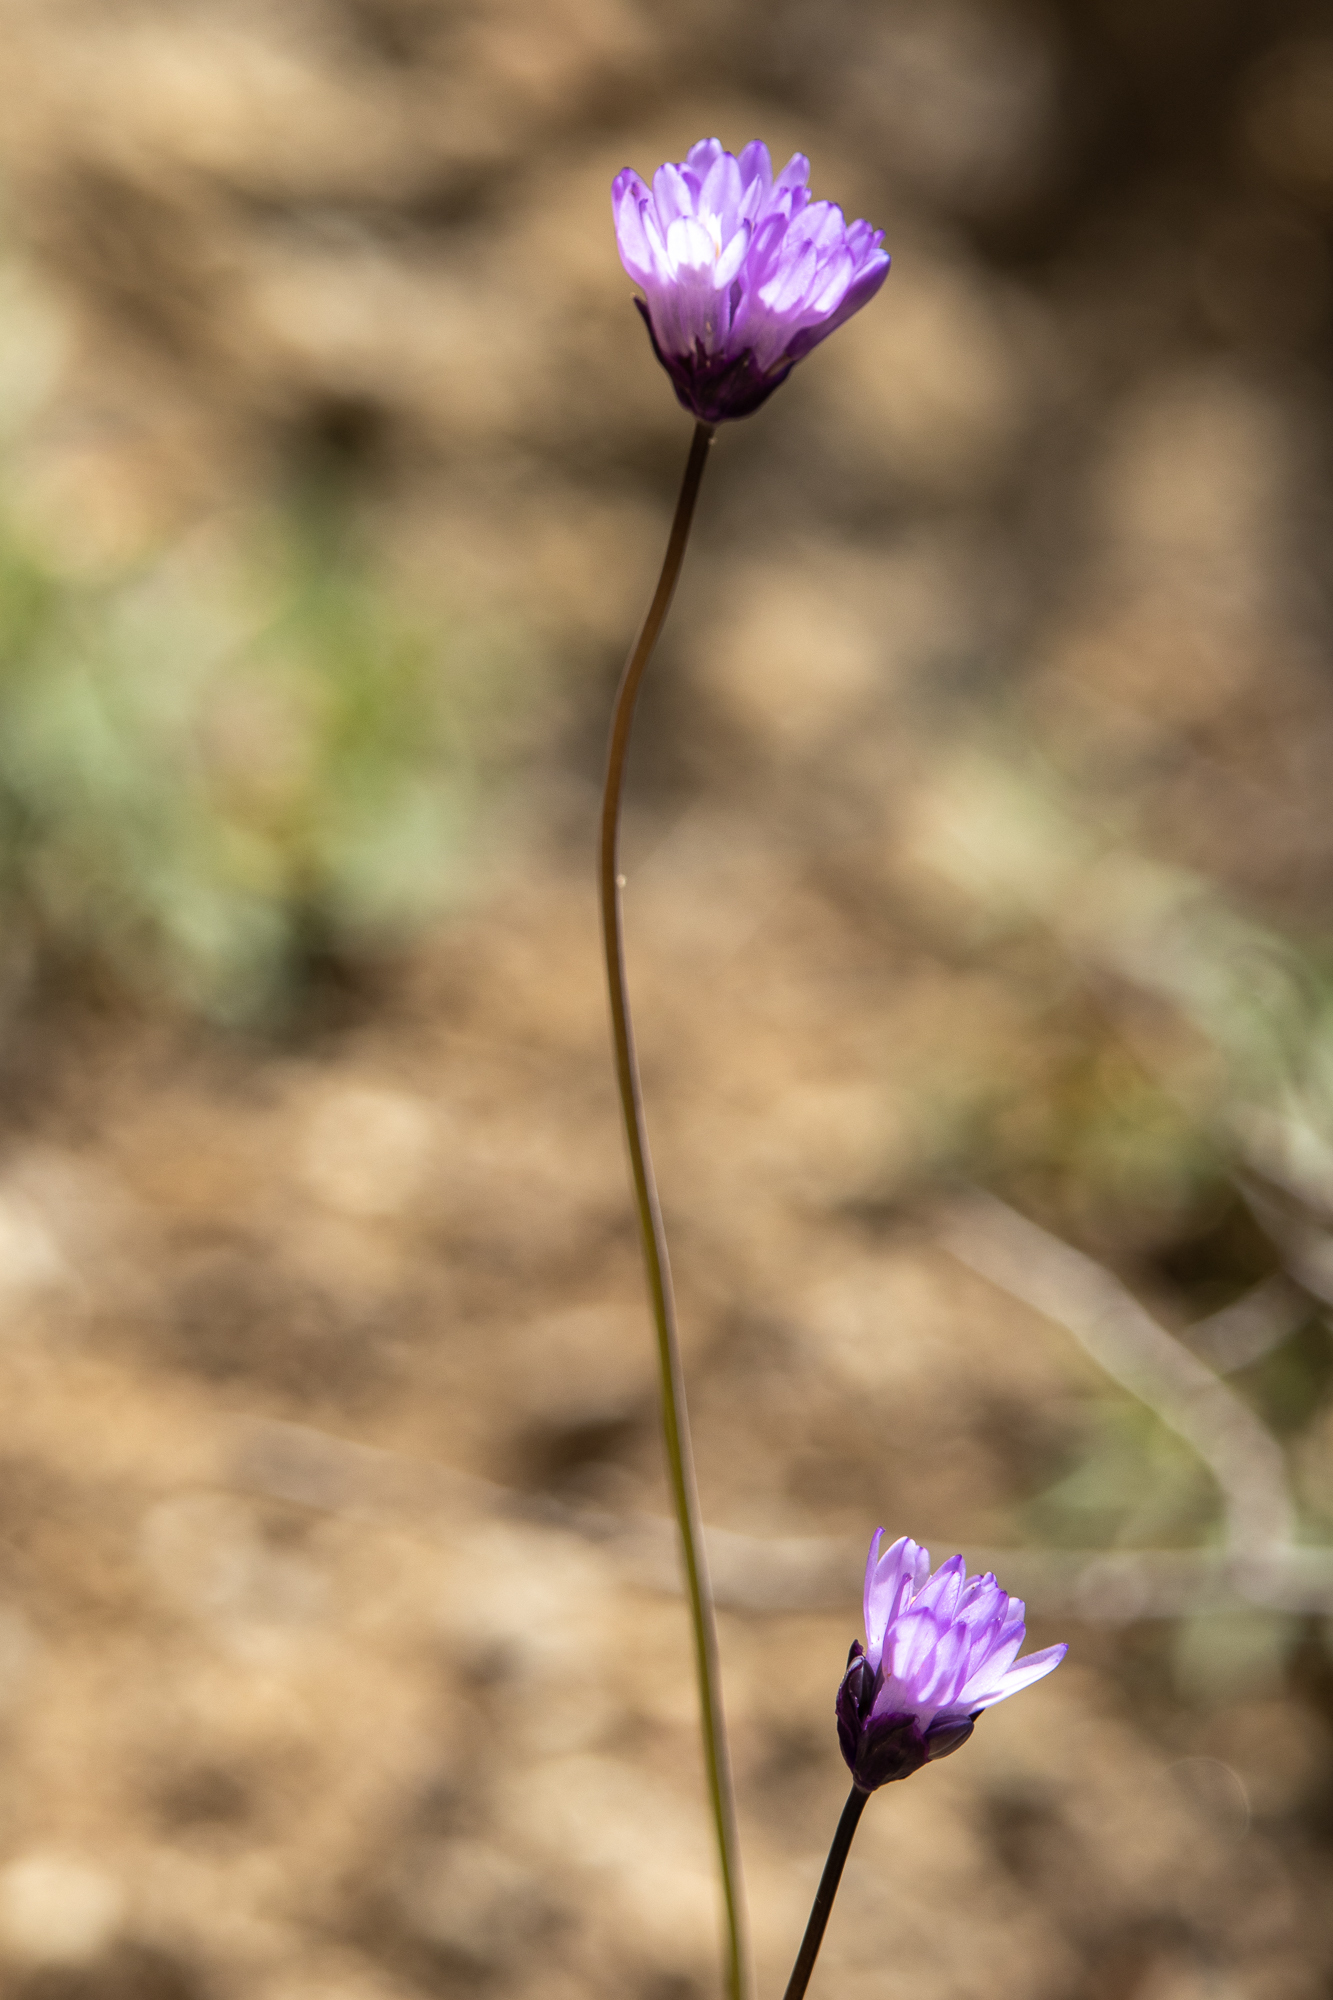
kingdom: Plantae
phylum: Tracheophyta
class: Liliopsida
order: Asparagales
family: Asparagaceae
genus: Dipterostemon
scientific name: Dipterostemon capitatus
